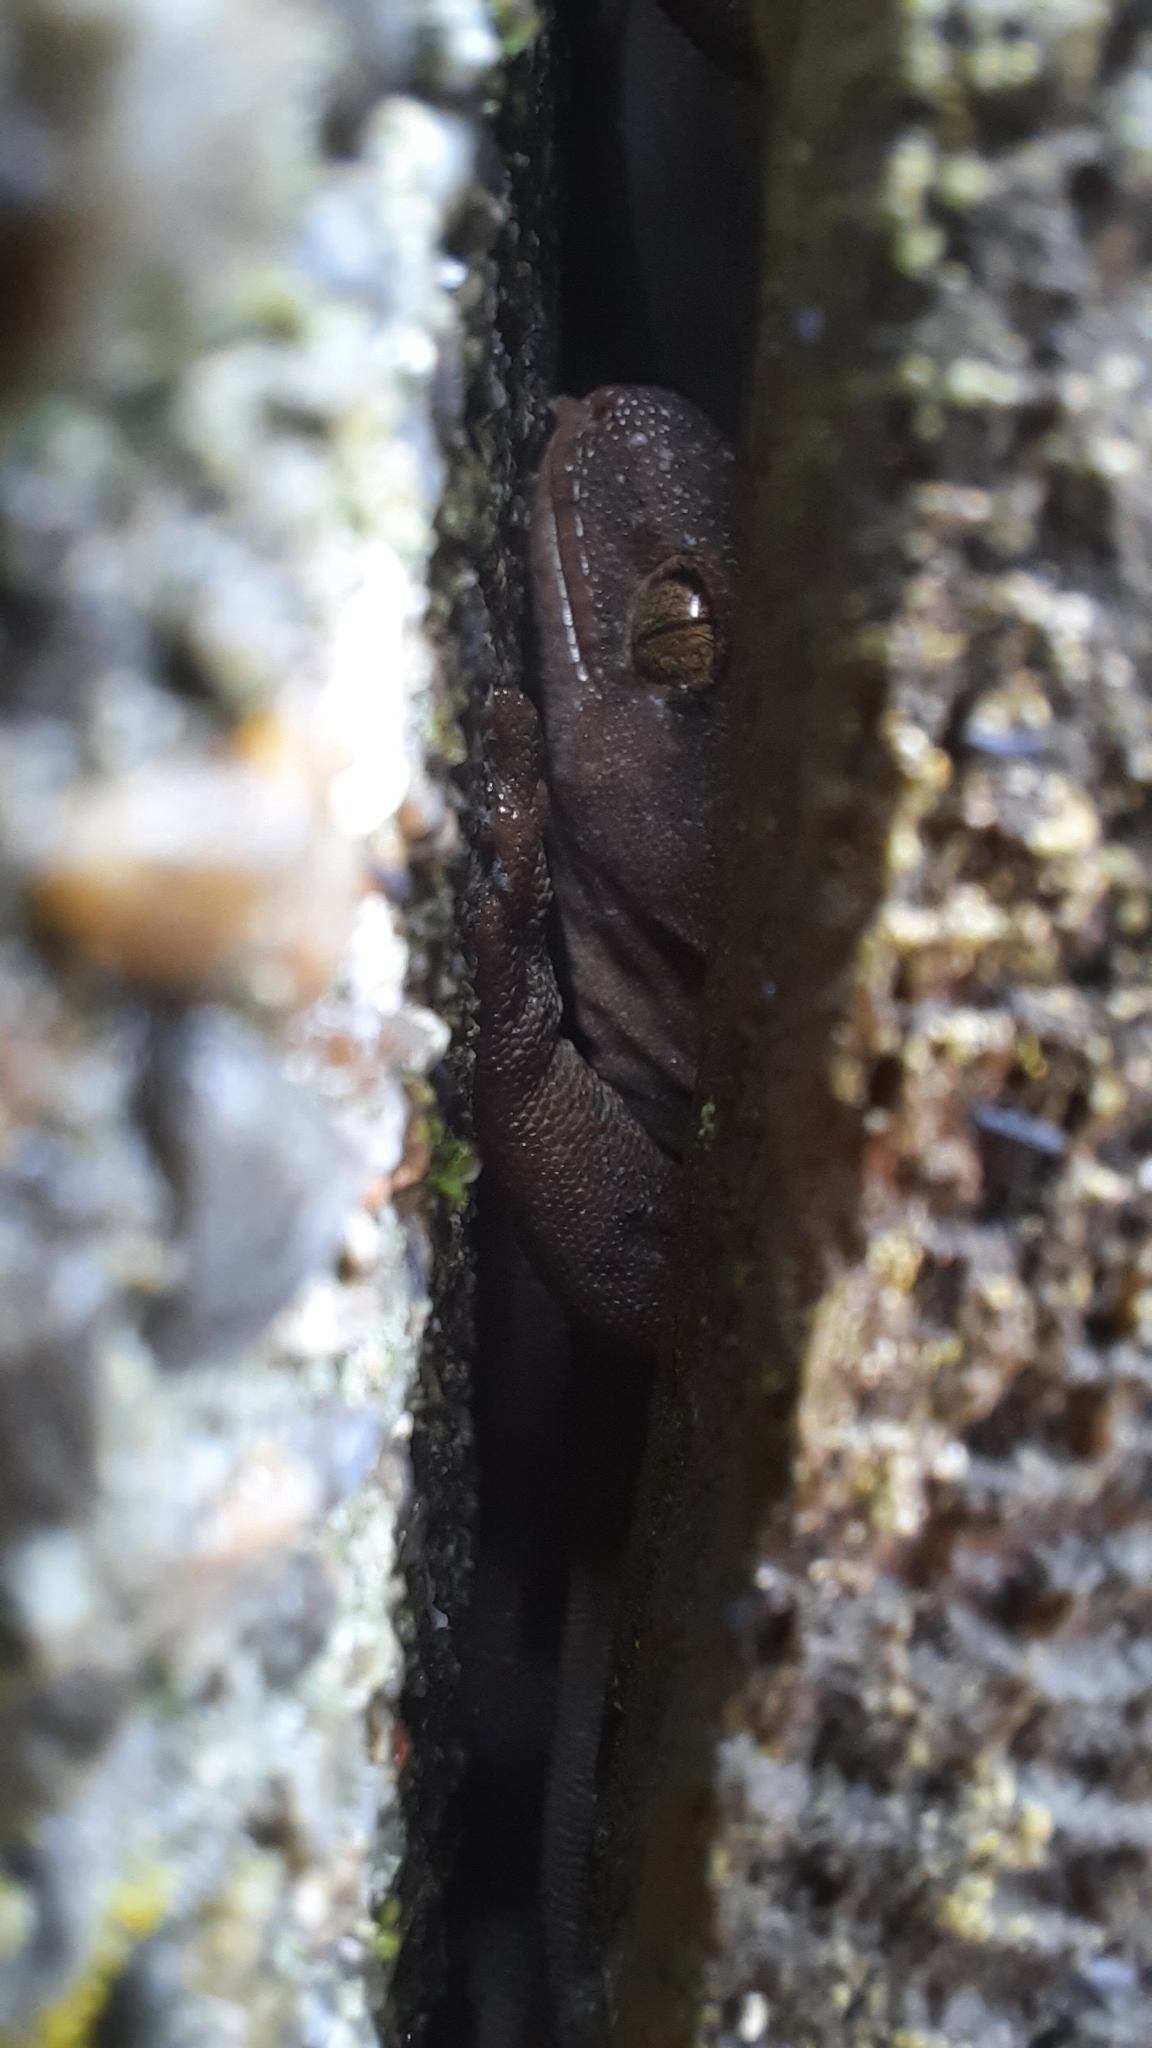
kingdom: Animalia
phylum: Chordata
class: Squamata
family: Diplodactylidae
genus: Woodworthia
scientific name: Woodworthia maculata
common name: Raukawa gecko
